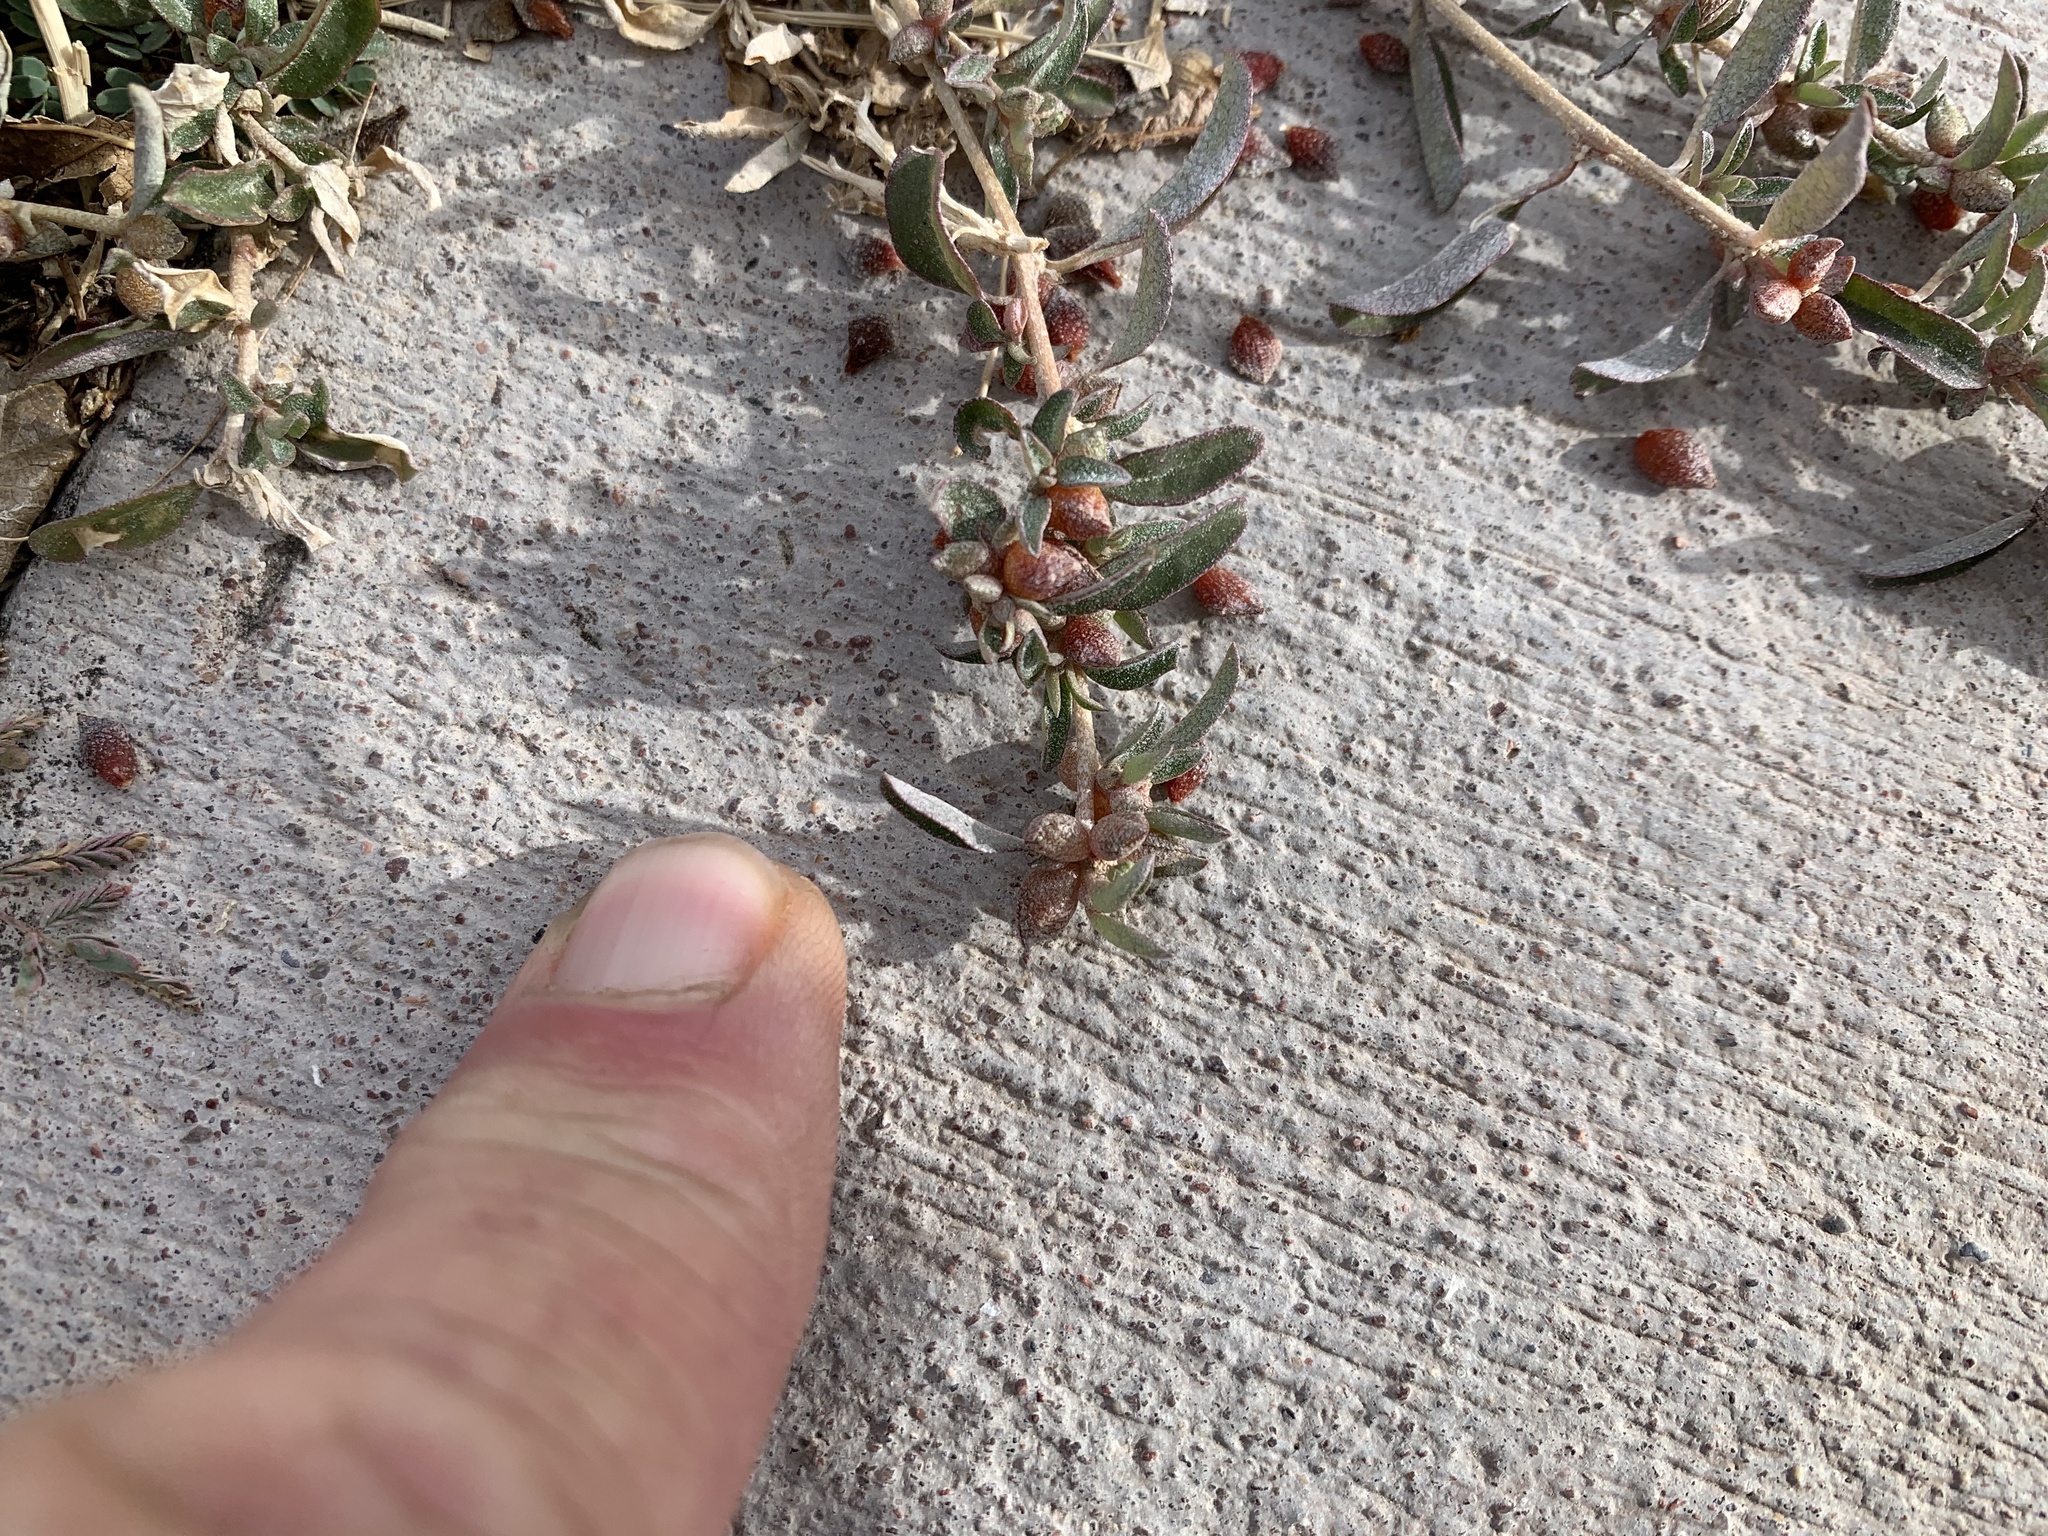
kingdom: Plantae
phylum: Tracheophyta
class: Magnoliopsida
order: Caryophyllales
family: Amaranthaceae
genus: Atriplex
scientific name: Atriplex semibaccata
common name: Australian saltbush
